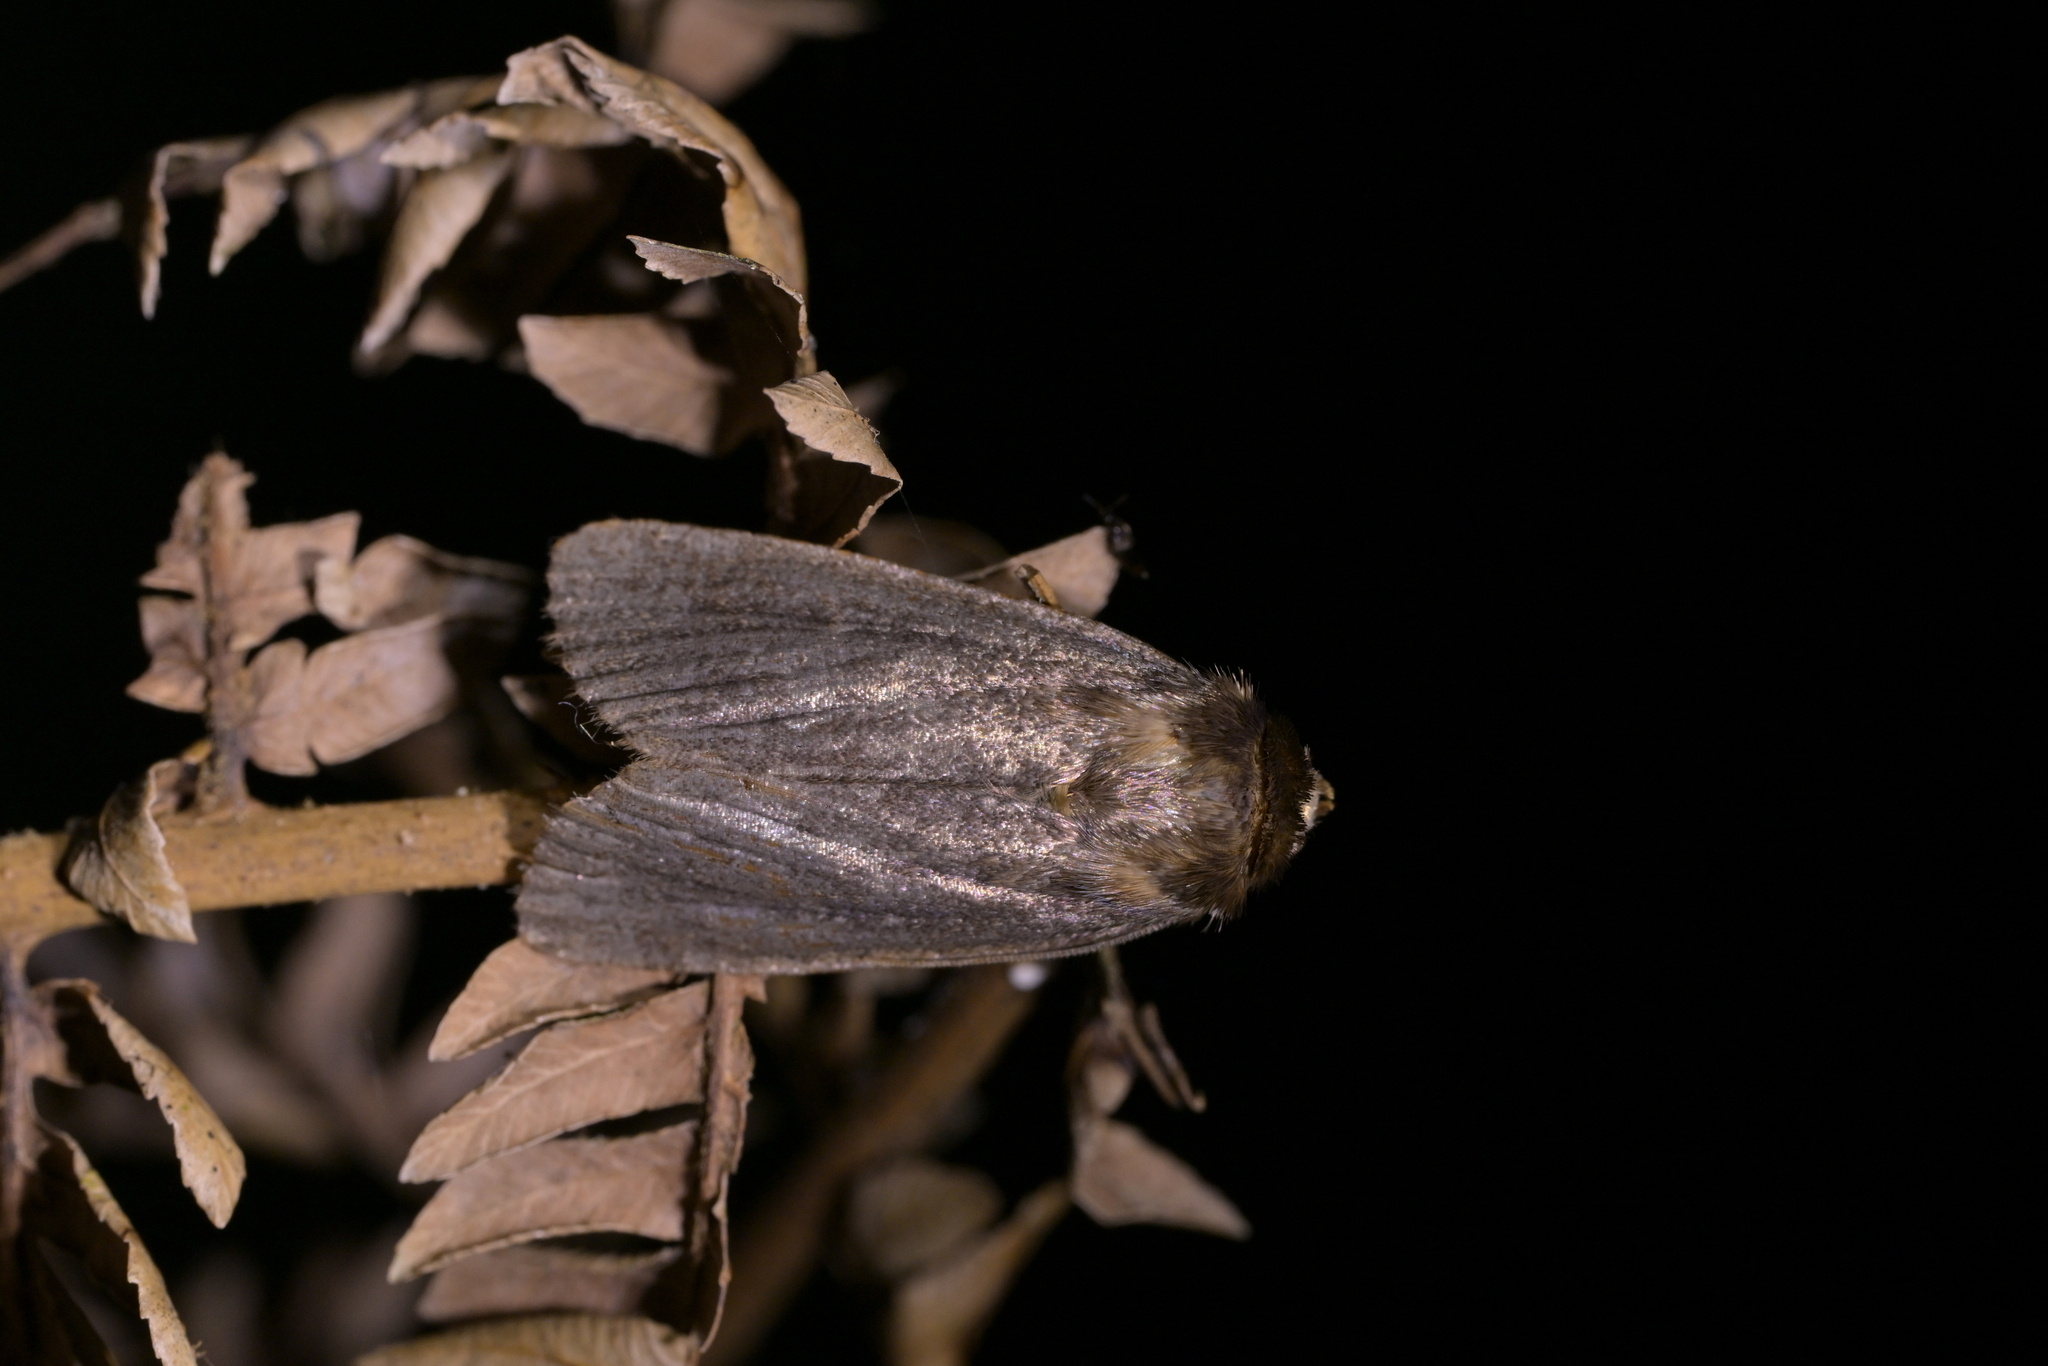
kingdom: Animalia
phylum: Arthropoda
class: Insecta
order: Lepidoptera
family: Noctuidae
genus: Bityla
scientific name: Bityla defigurata
